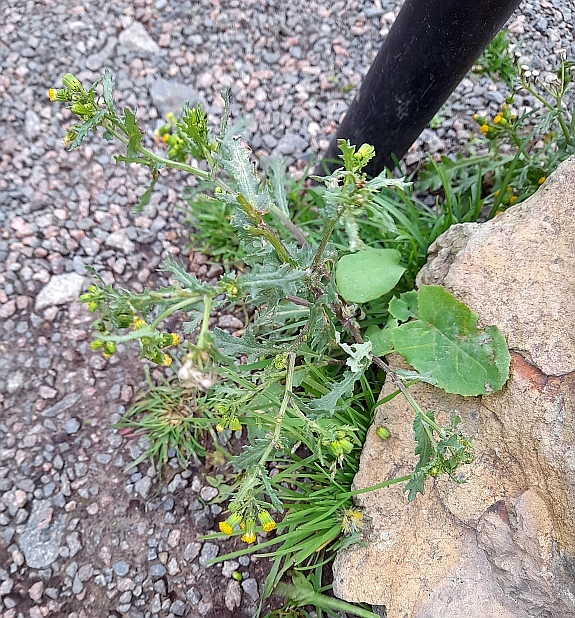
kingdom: Plantae
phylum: Tracheophyta
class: Magnoliopsida
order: Asterales
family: Asteraceae
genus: Senecio
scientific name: Senecio vulgaris
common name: Old-man-in-the-spring
